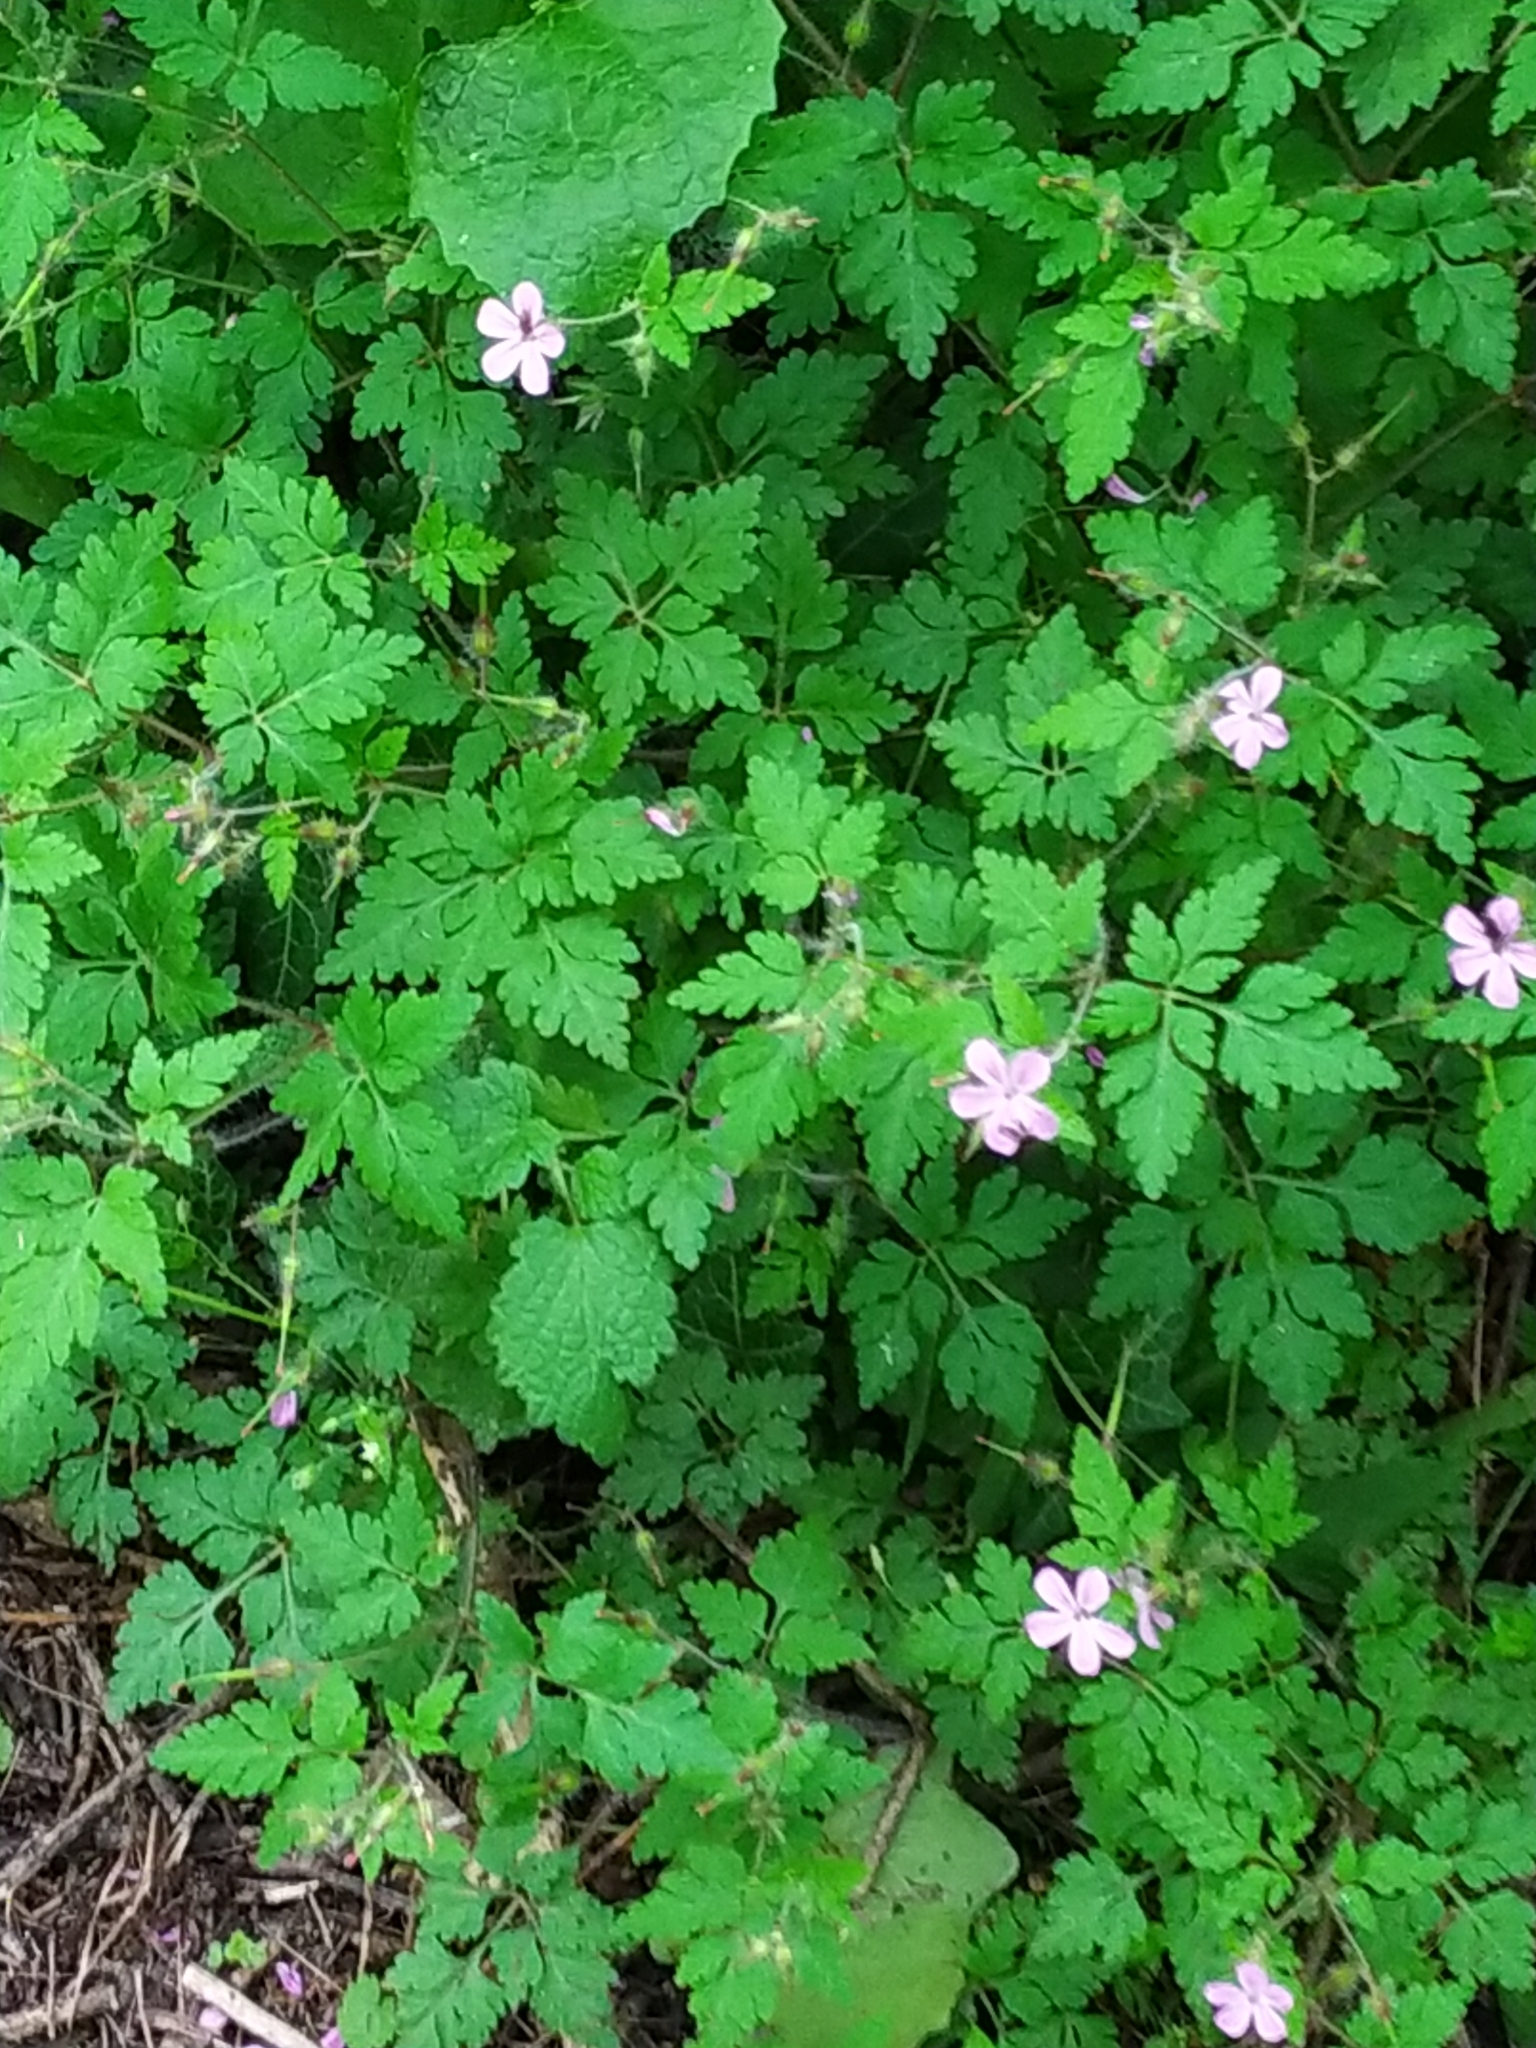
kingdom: Plantae
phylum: Tracheophyta
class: Magnoliopsida
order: Geraniales
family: Geraniaceae
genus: Geranium
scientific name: Geranium robertianum
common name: Herb-robert
